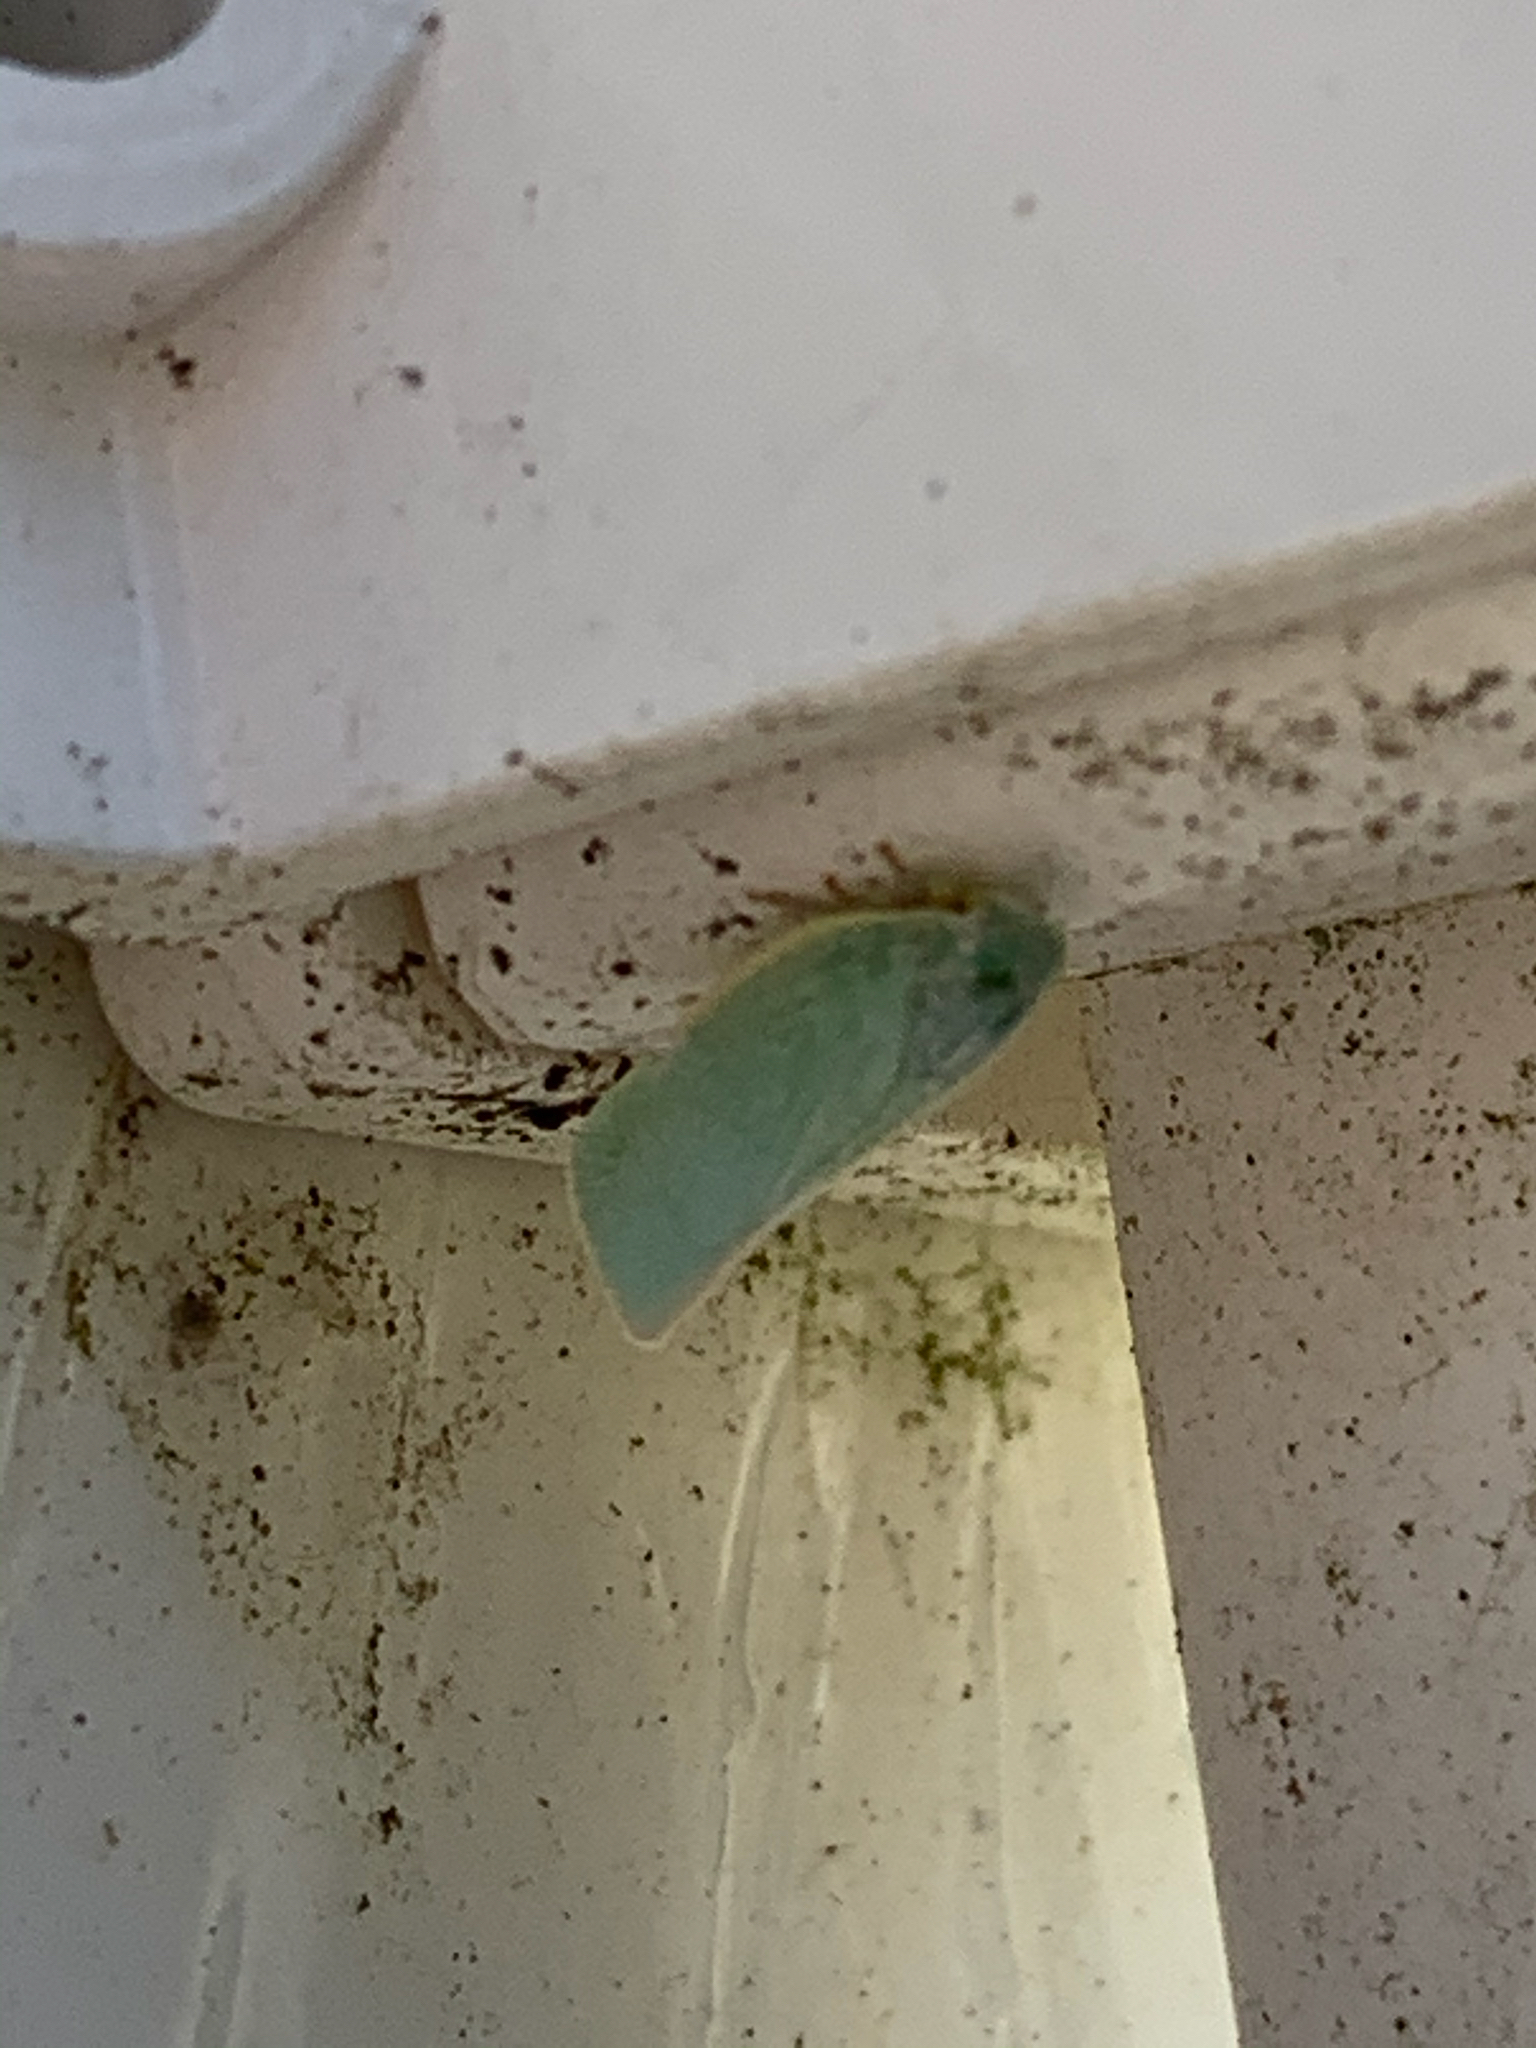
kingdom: Animalia
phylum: Arthropoda
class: Insecta
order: Hemiptera
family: Flatidae
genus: Flatormenis
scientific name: Flatormenis proxima
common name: Northern flatid planthopper
